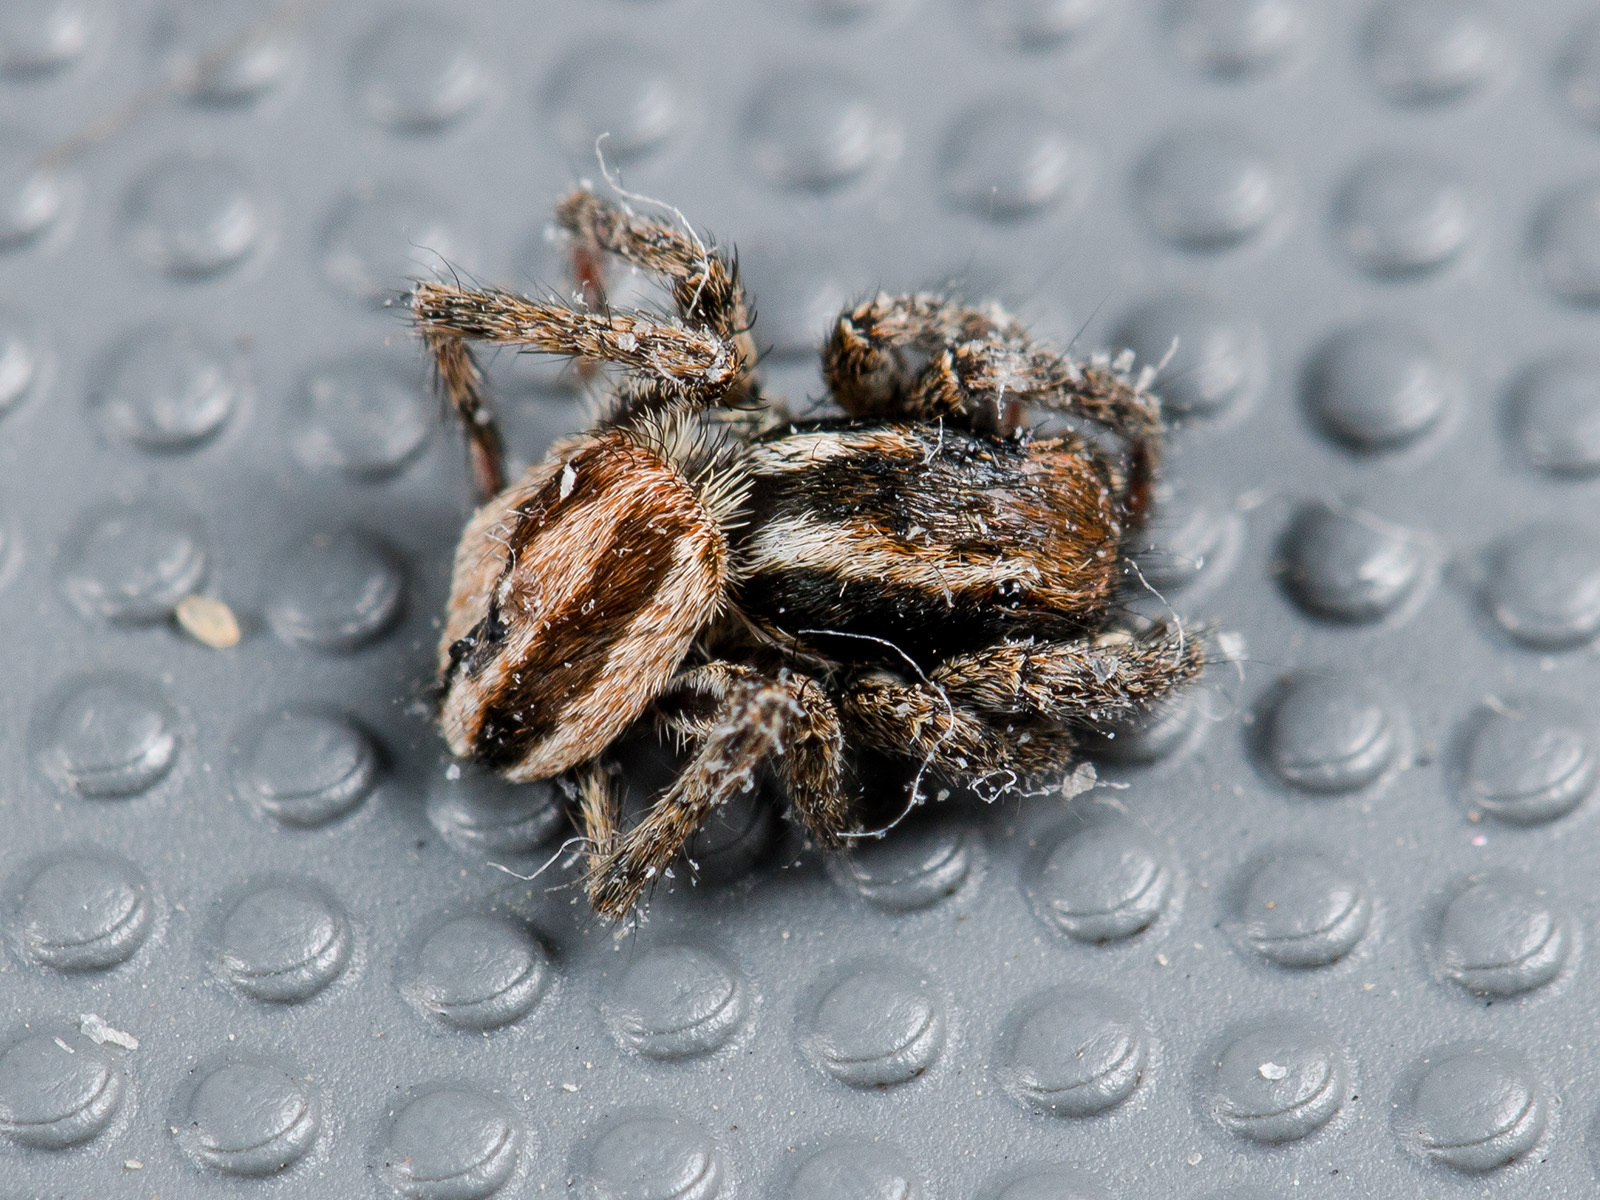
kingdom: Animalia
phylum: Arthropoda
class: Arachnida
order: Araneae
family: Salticidae
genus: Phlegra
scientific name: Phlegra andreevae
